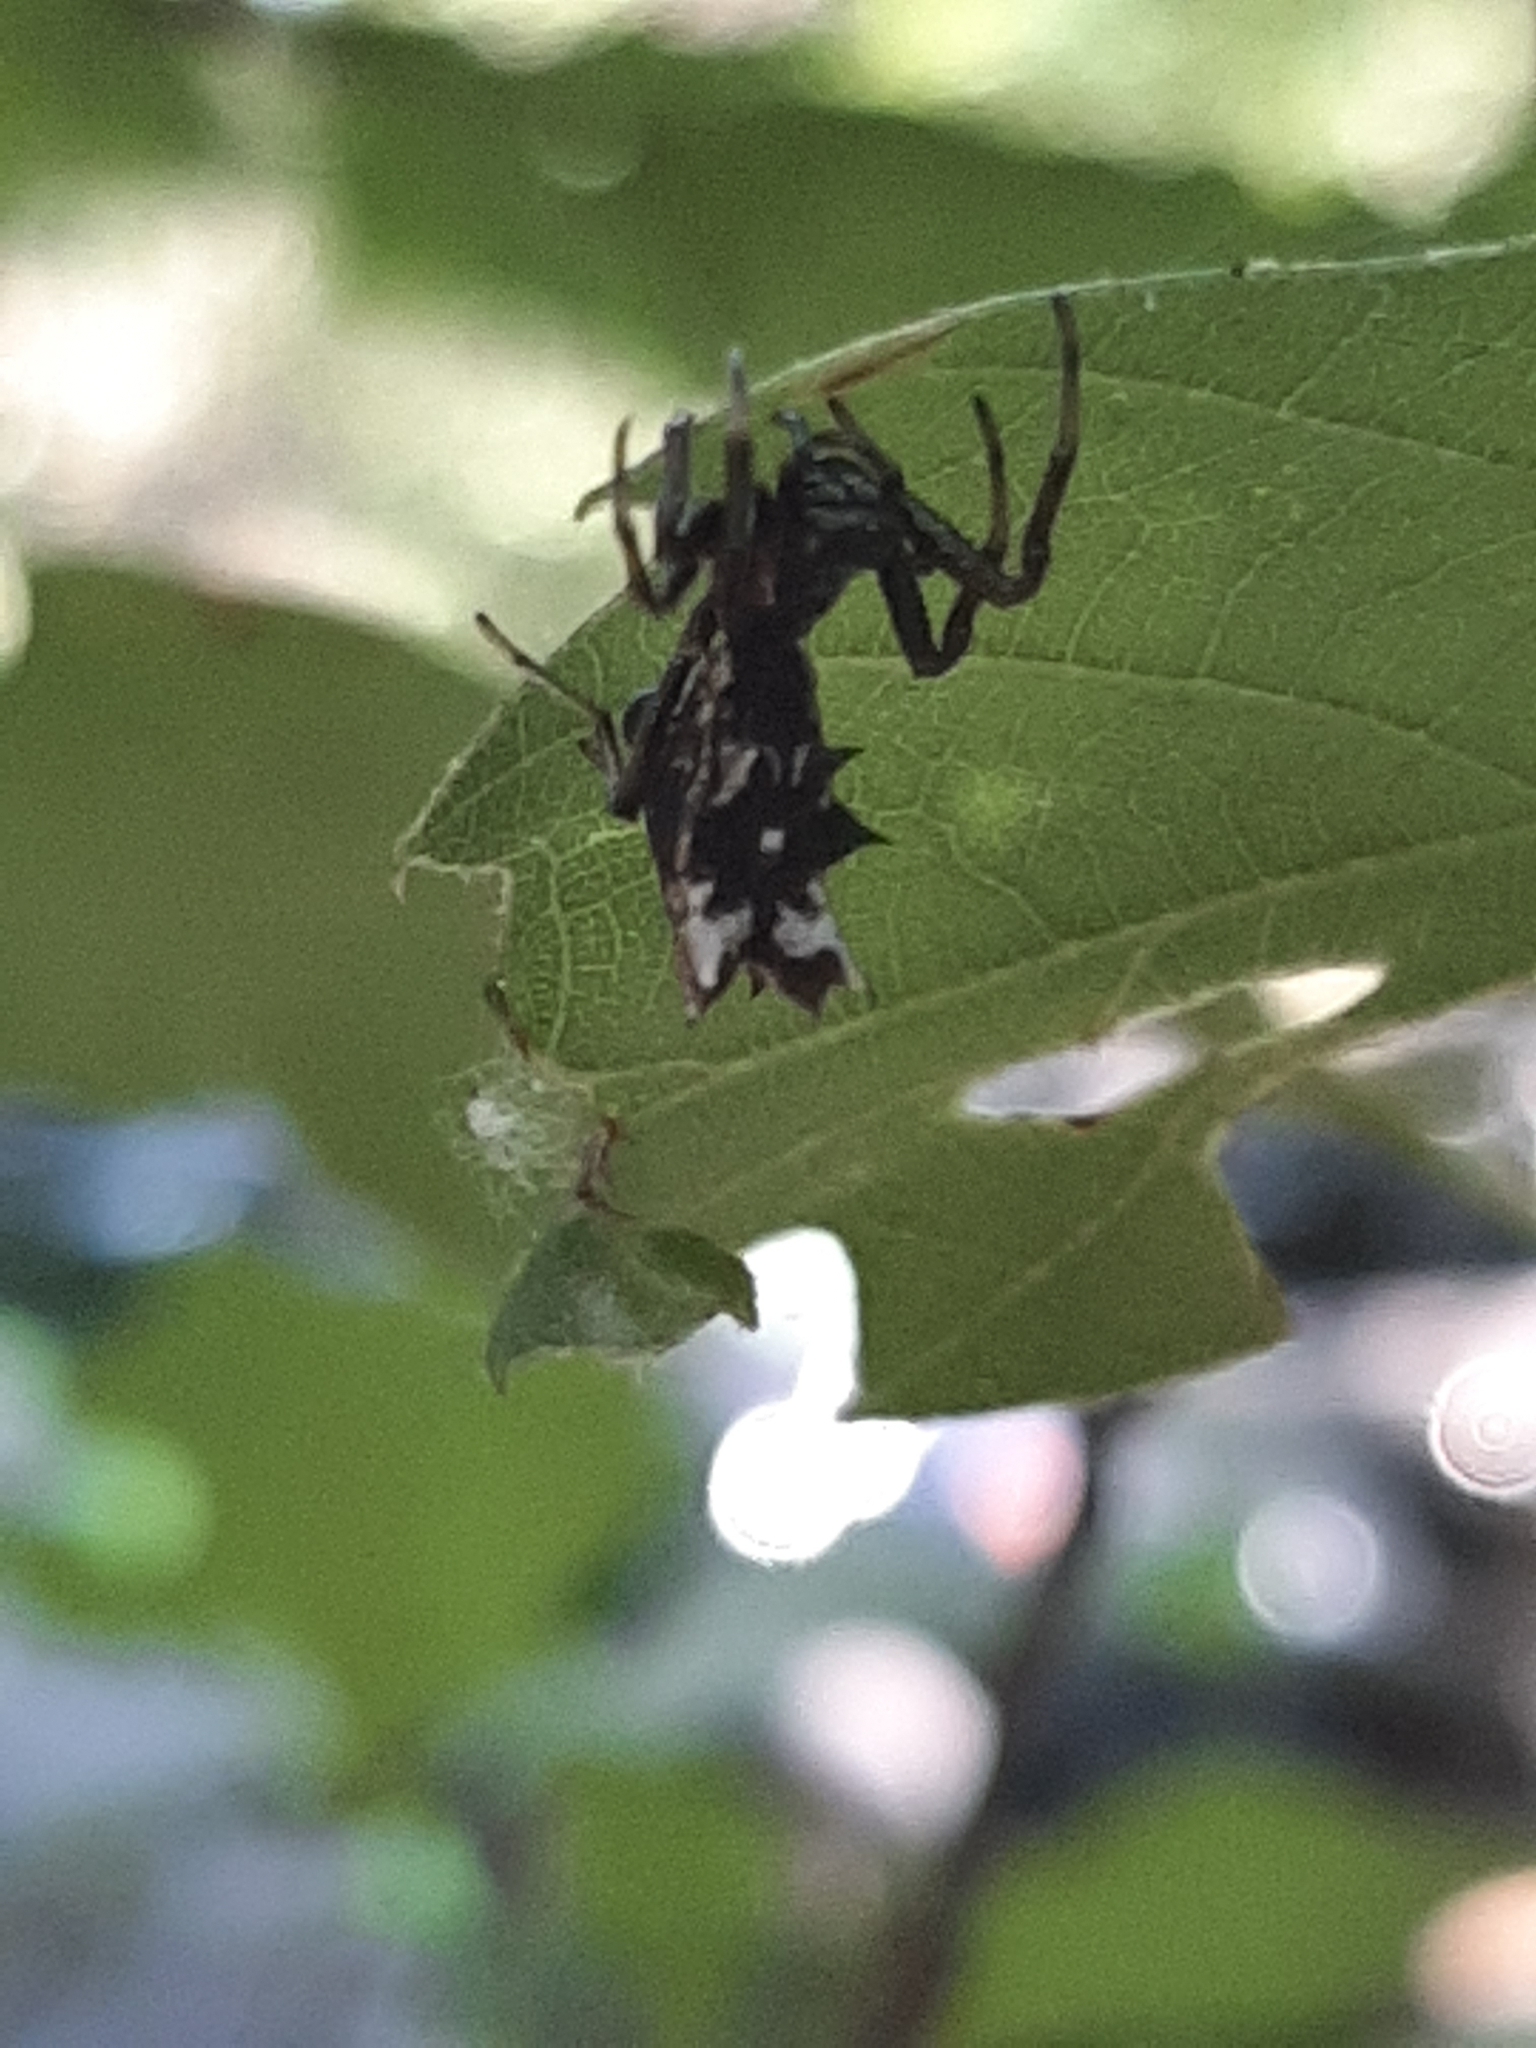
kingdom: Animalia
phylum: Arthropoda
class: Arachnida
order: Araneae
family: Araneidae
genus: Micrathena
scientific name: Micrathena gracilis
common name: Orb weavers
